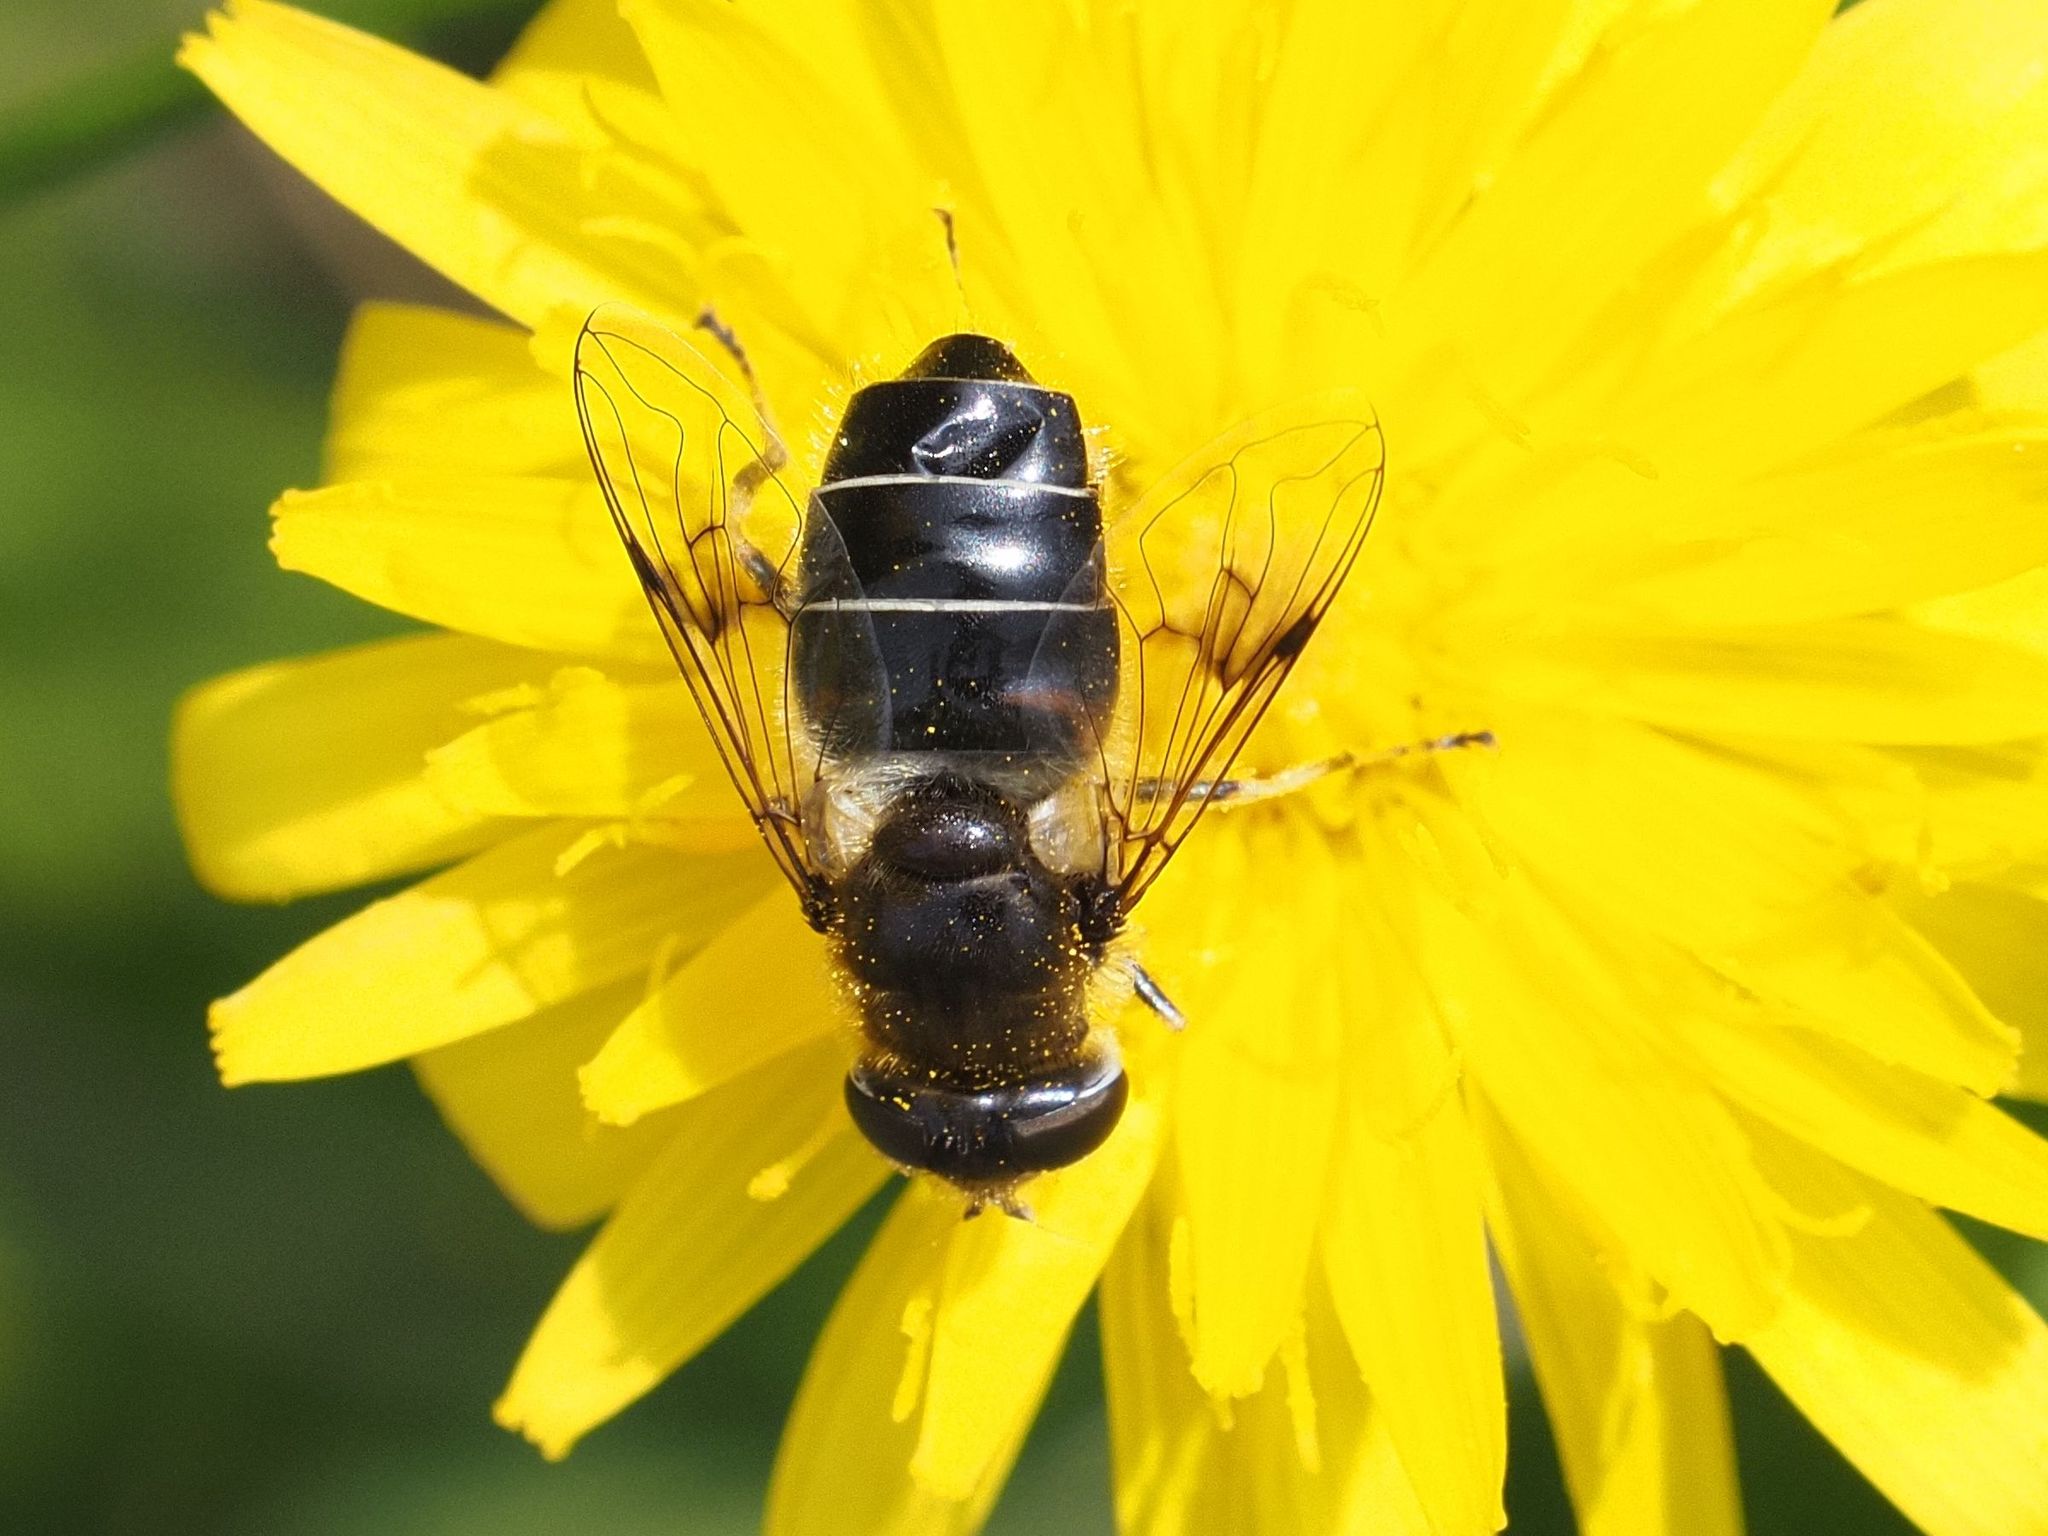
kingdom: Animalia
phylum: Arthropoda
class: Insecta
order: Diptera
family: Syrphidae
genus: Eristalis
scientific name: Eristalis rupium
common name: Hover fly
